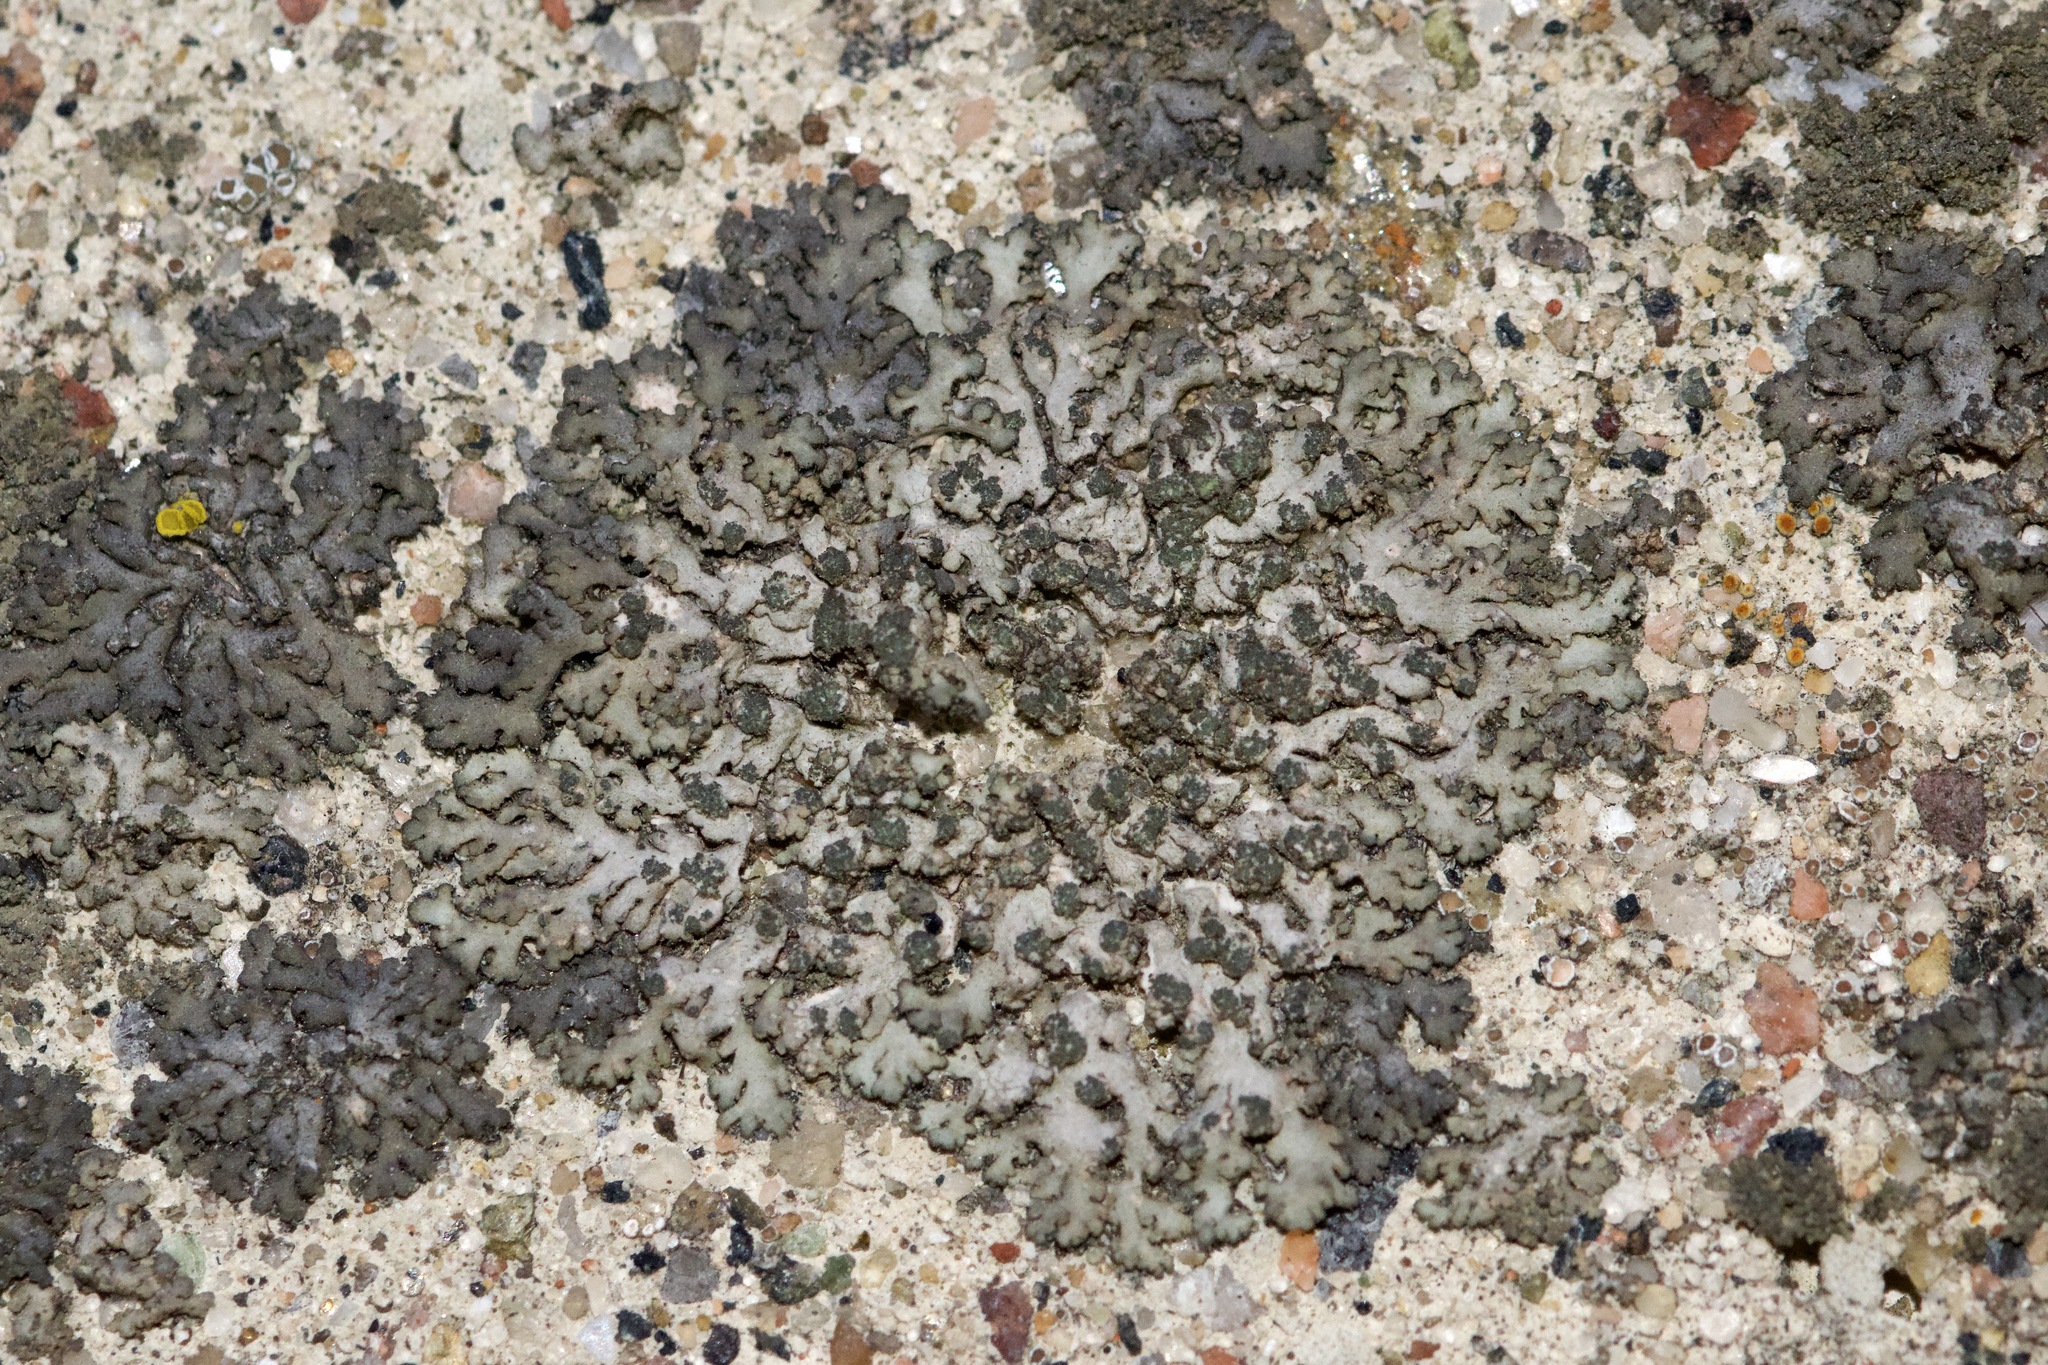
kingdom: Fungi
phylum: Ascomycota
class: Lecanoromycetes
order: Caliciales
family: Physciaceae
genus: Phaeophyscia
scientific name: Phaeophyscia orbicularis
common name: Mealy shadow lichen
